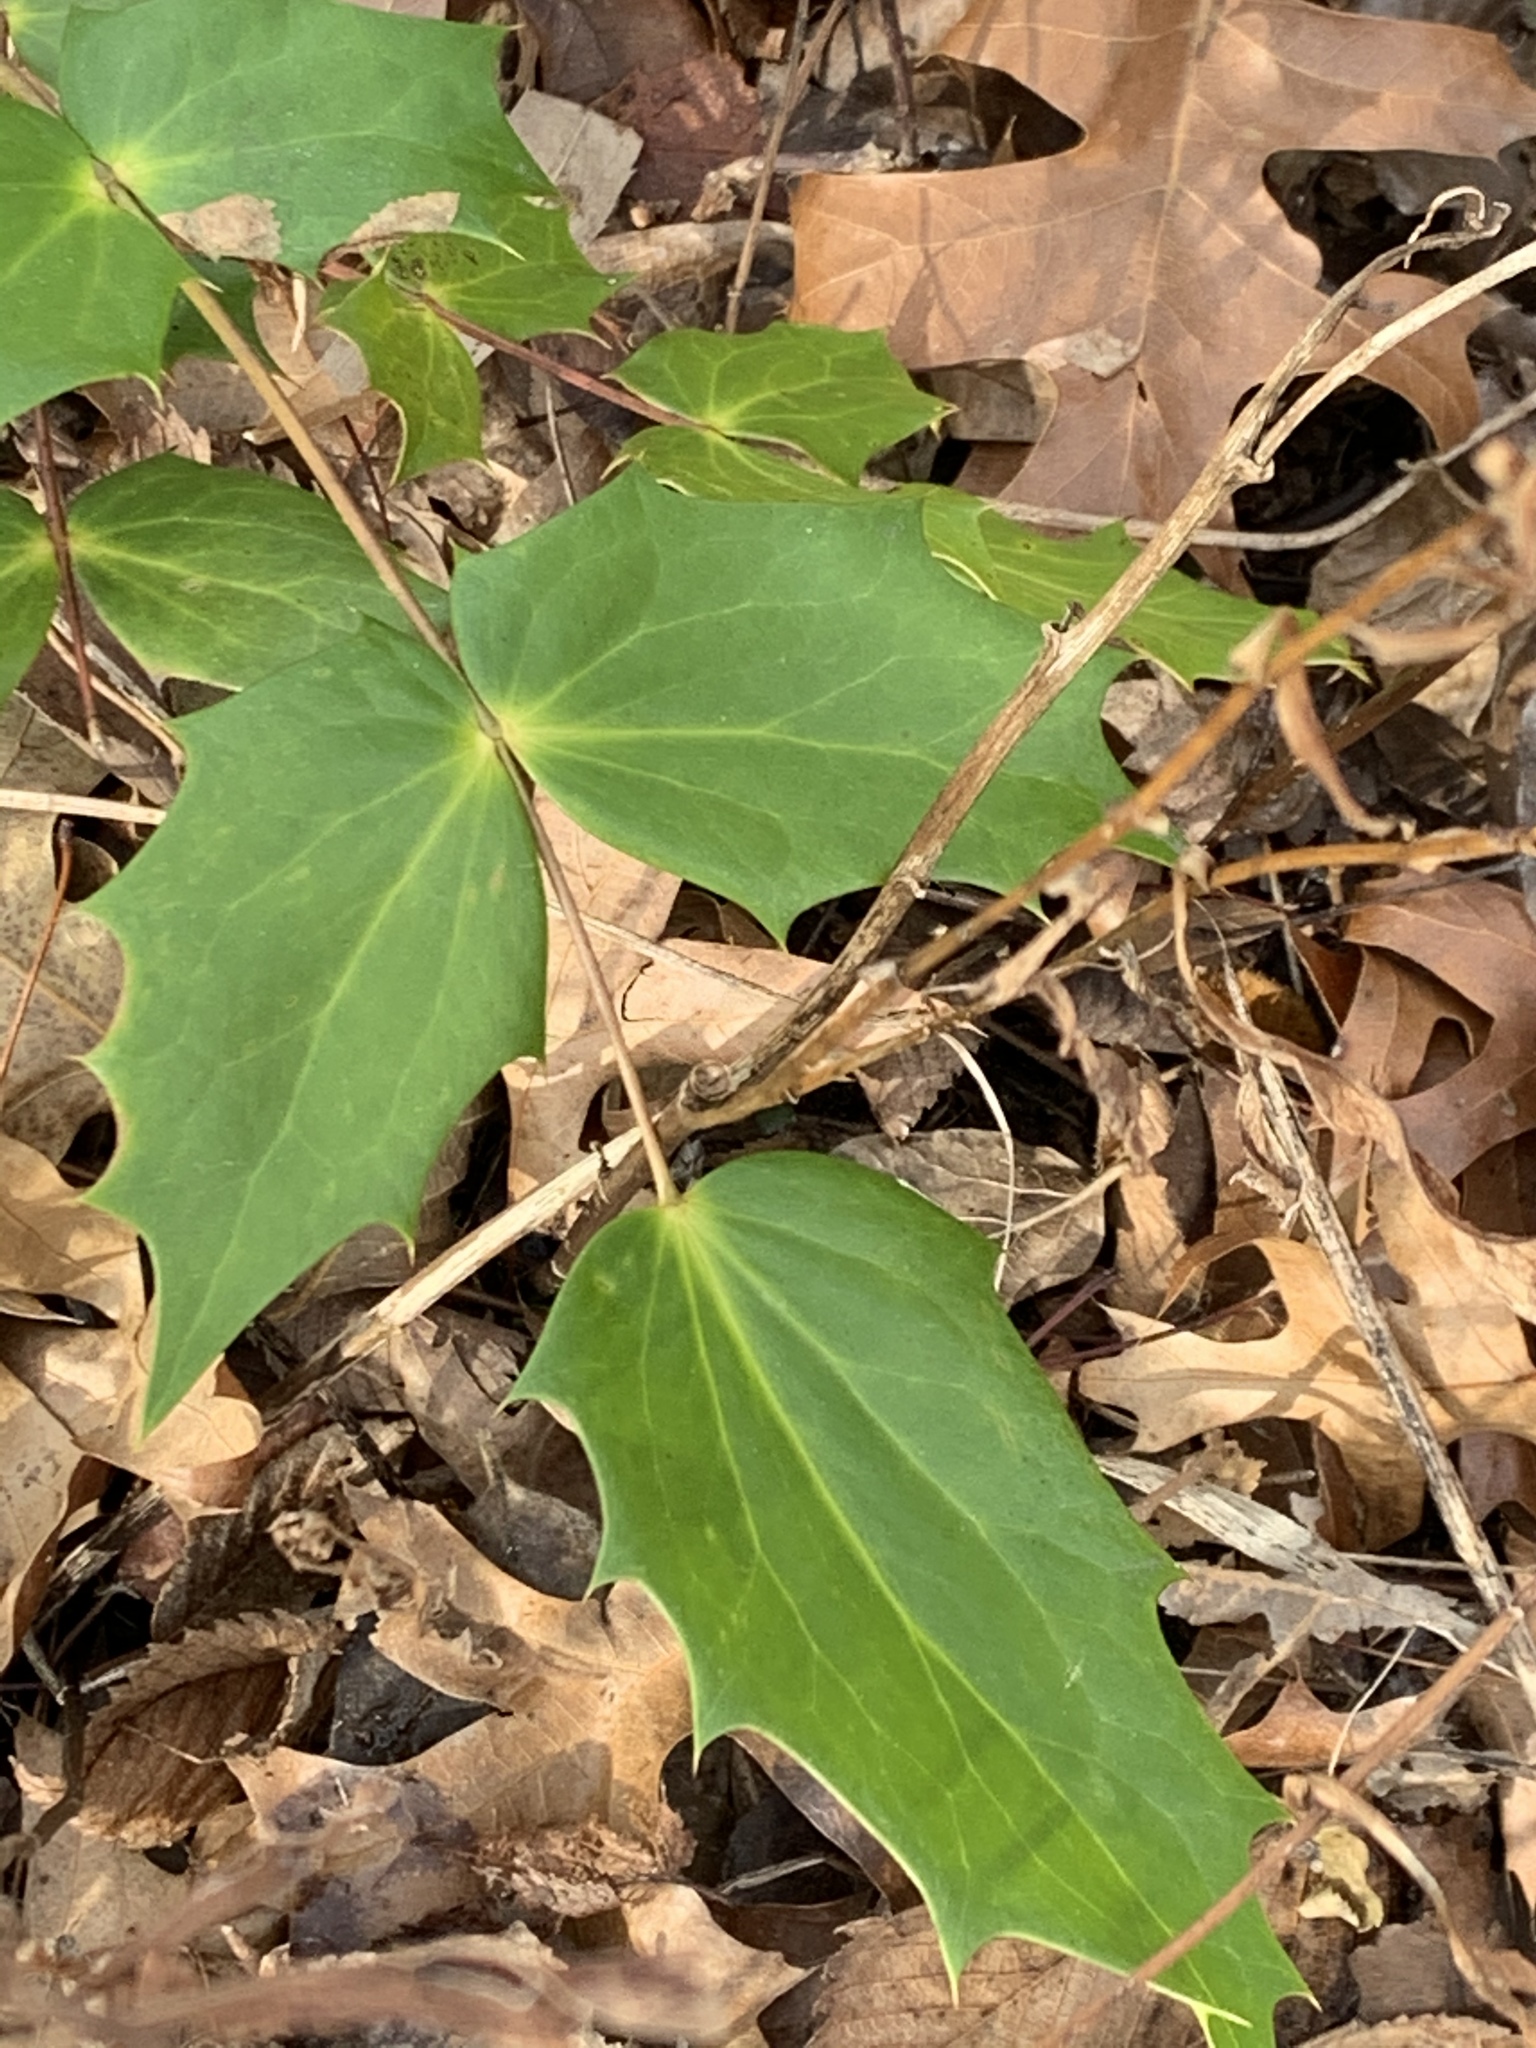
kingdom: Plantae
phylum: Tracheophyta
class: Magnoliopsida
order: Ranunculales
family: Berberidaceae
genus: Mahonia
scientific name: Mahonia bealei
